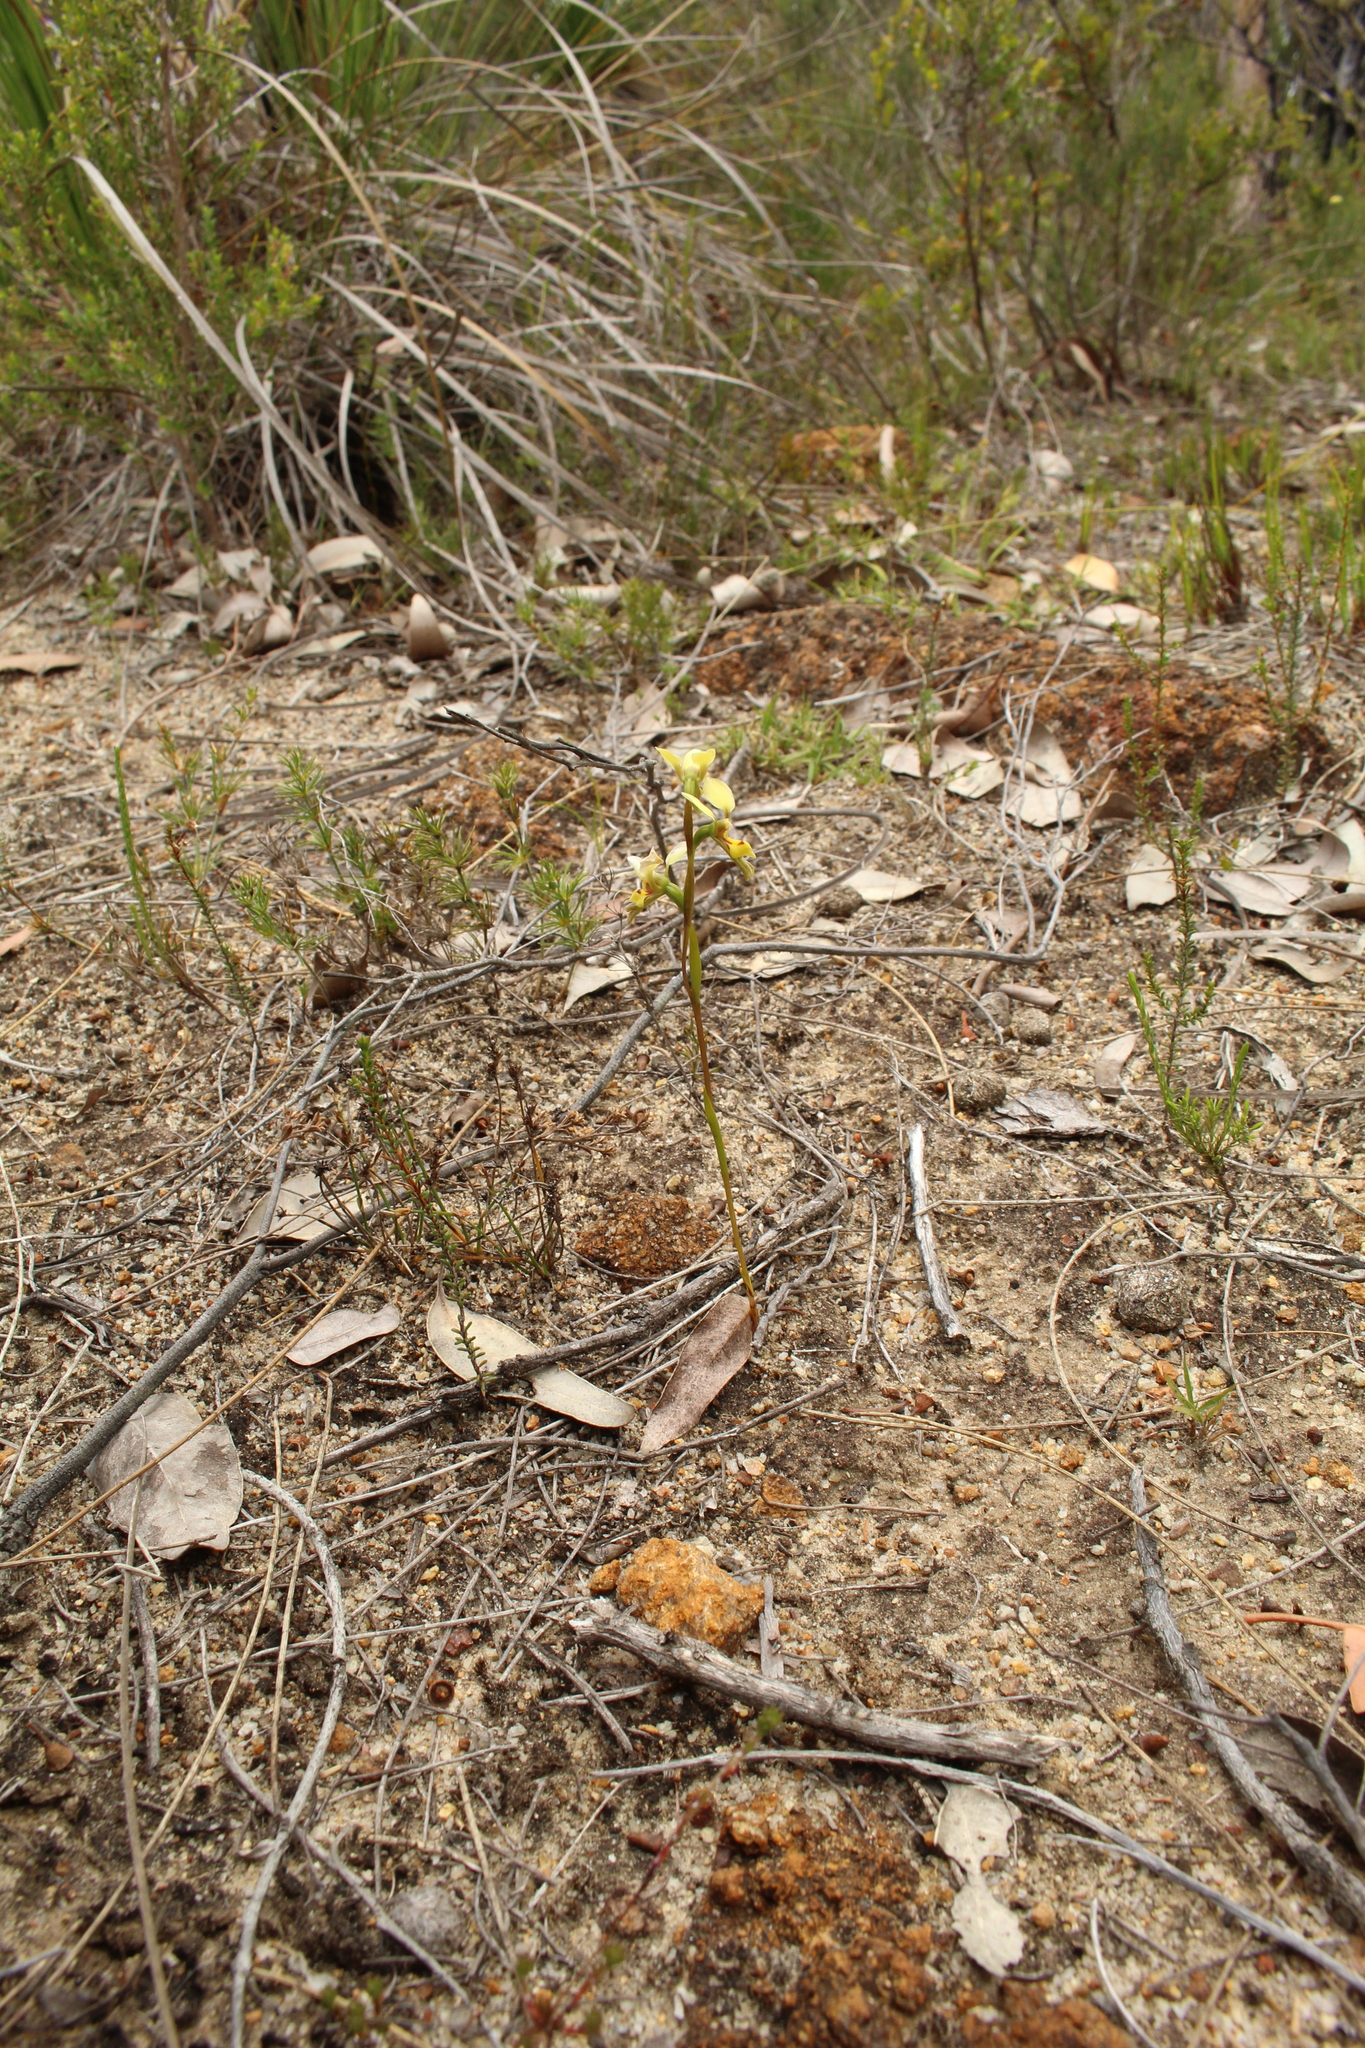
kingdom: Plantae
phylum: Tracheophyta
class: Liliopsida
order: Asparagales
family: Orchidaceae
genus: Diuris
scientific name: Diuris setacea
